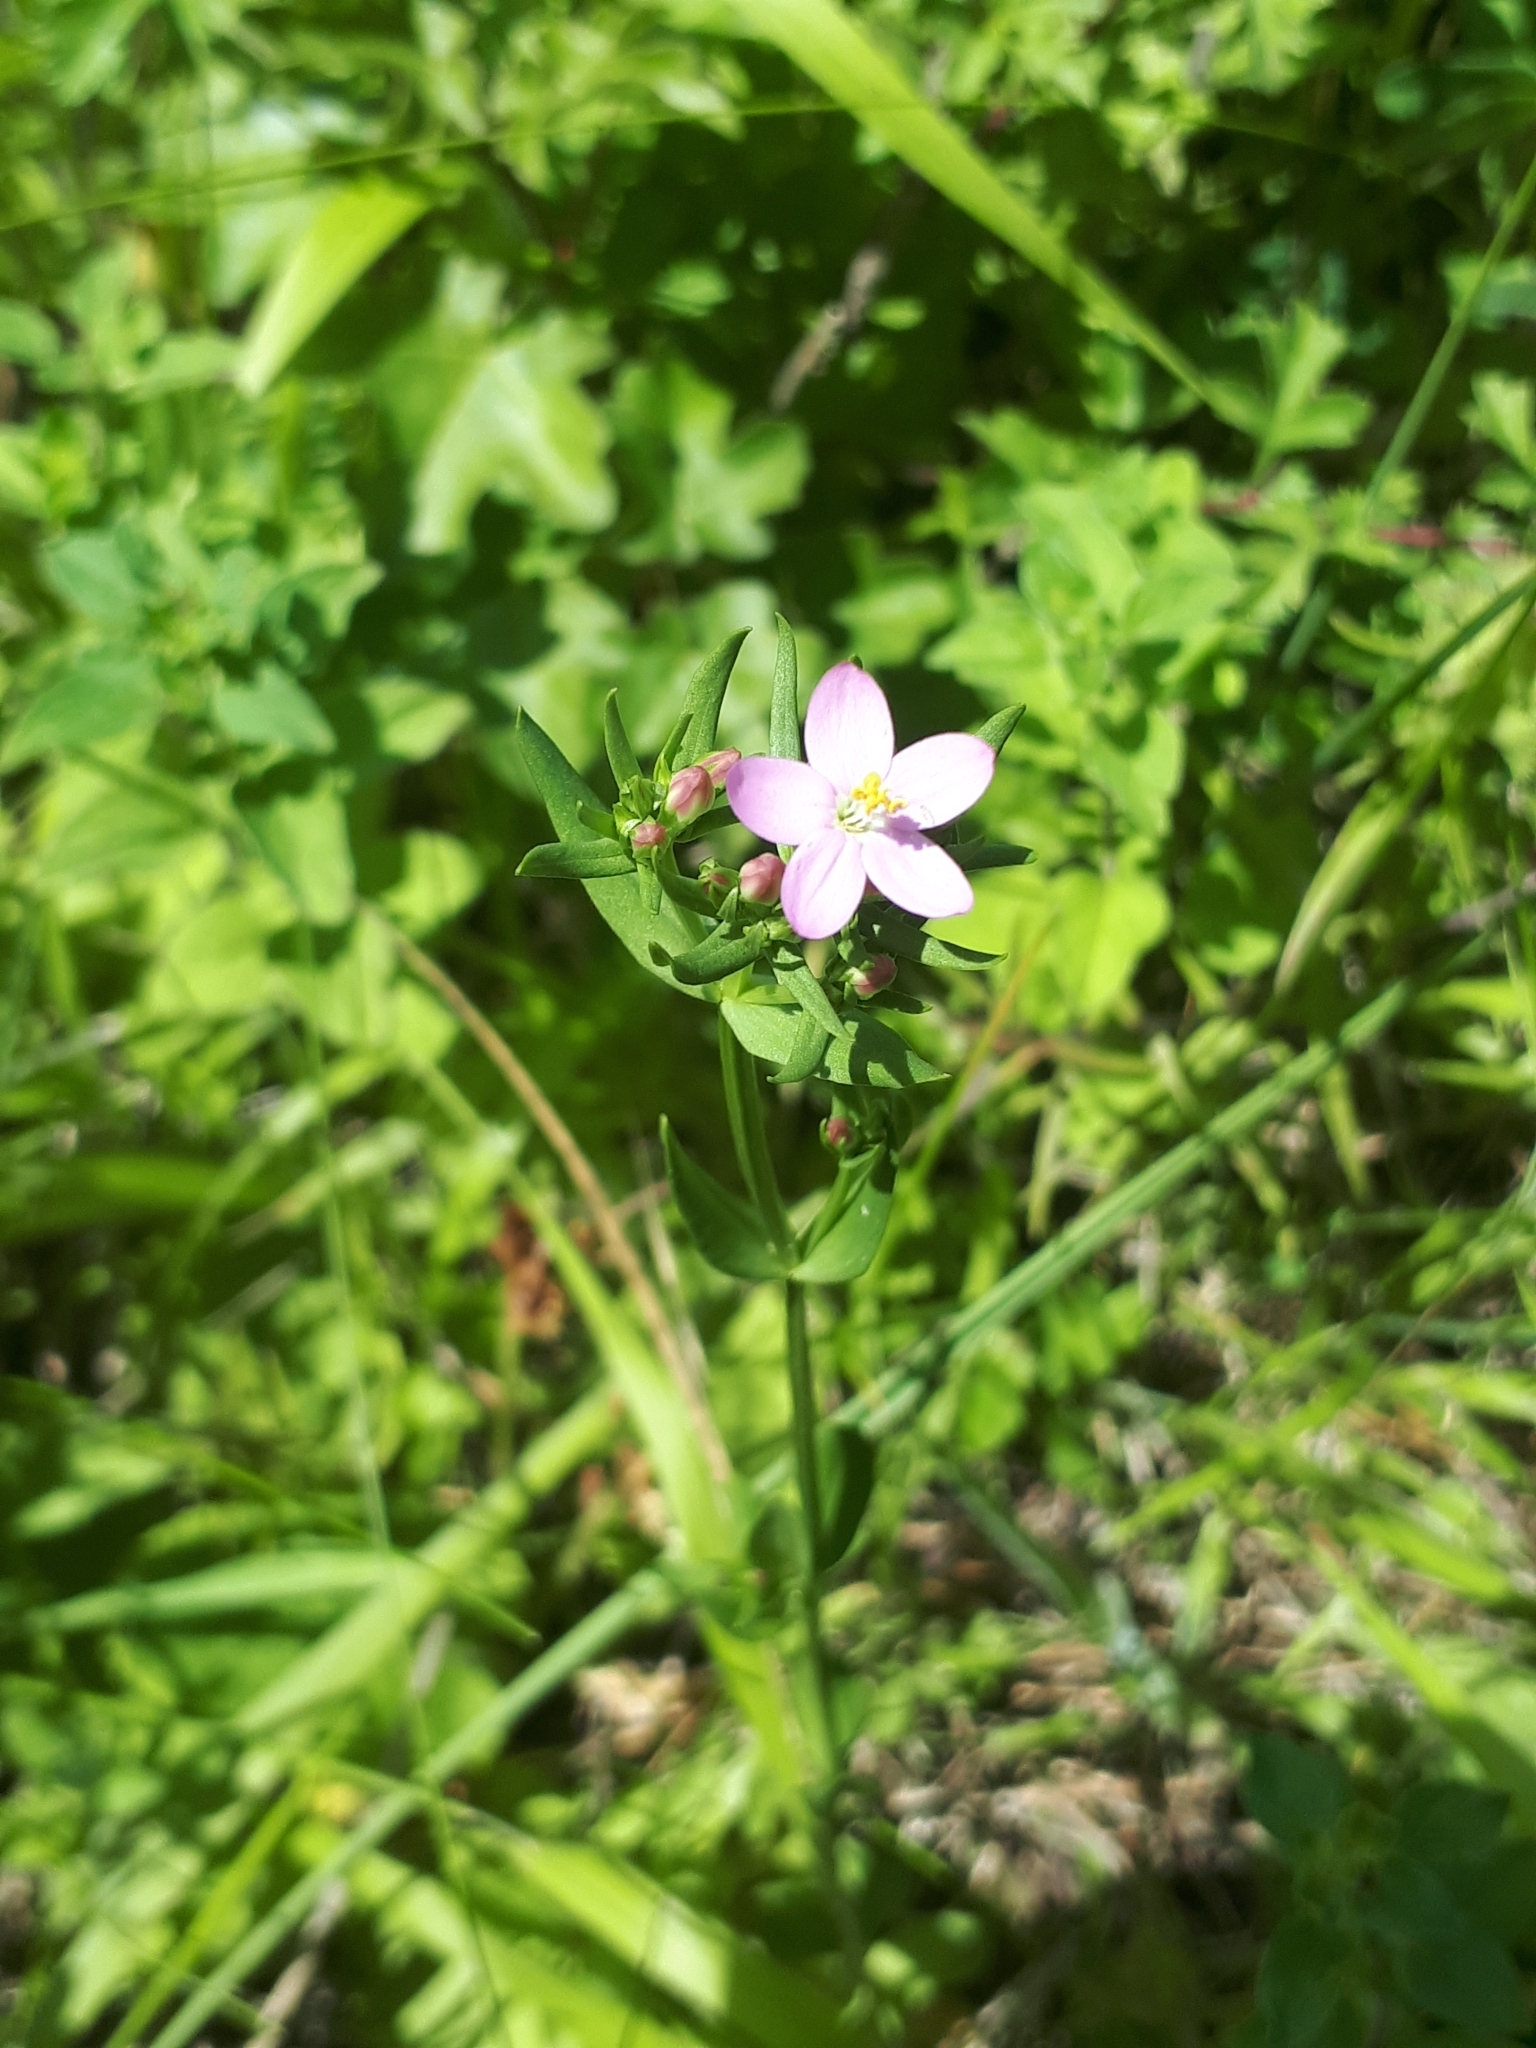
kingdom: Plantae
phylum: Tracheophyta
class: Magnoliopsida
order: Gentianales
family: Gentianaceae
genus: Centaurium
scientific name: Centaurium erythraea
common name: Common centaury
